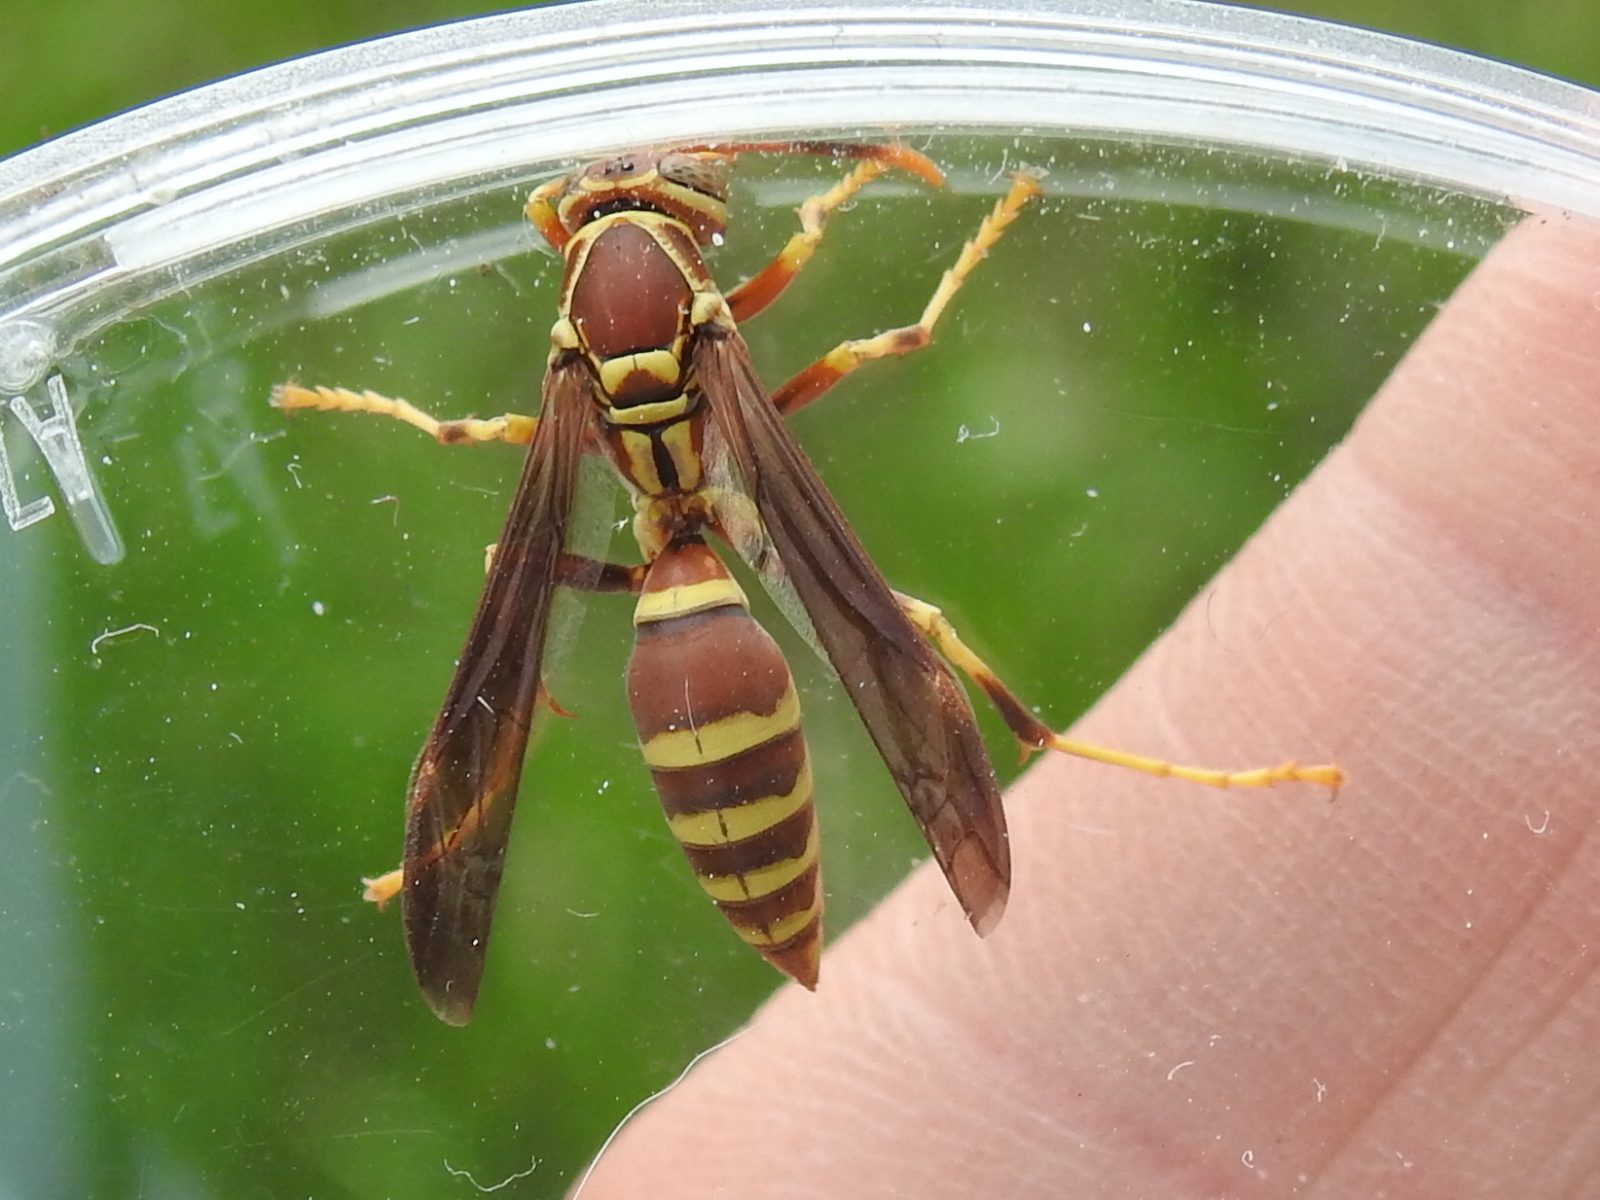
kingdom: Animalia
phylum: Arthropoda
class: Insecta
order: Hymenoptera
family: Eumenidae
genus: Polistes
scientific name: Polistes exclamans
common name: Paper wasp
